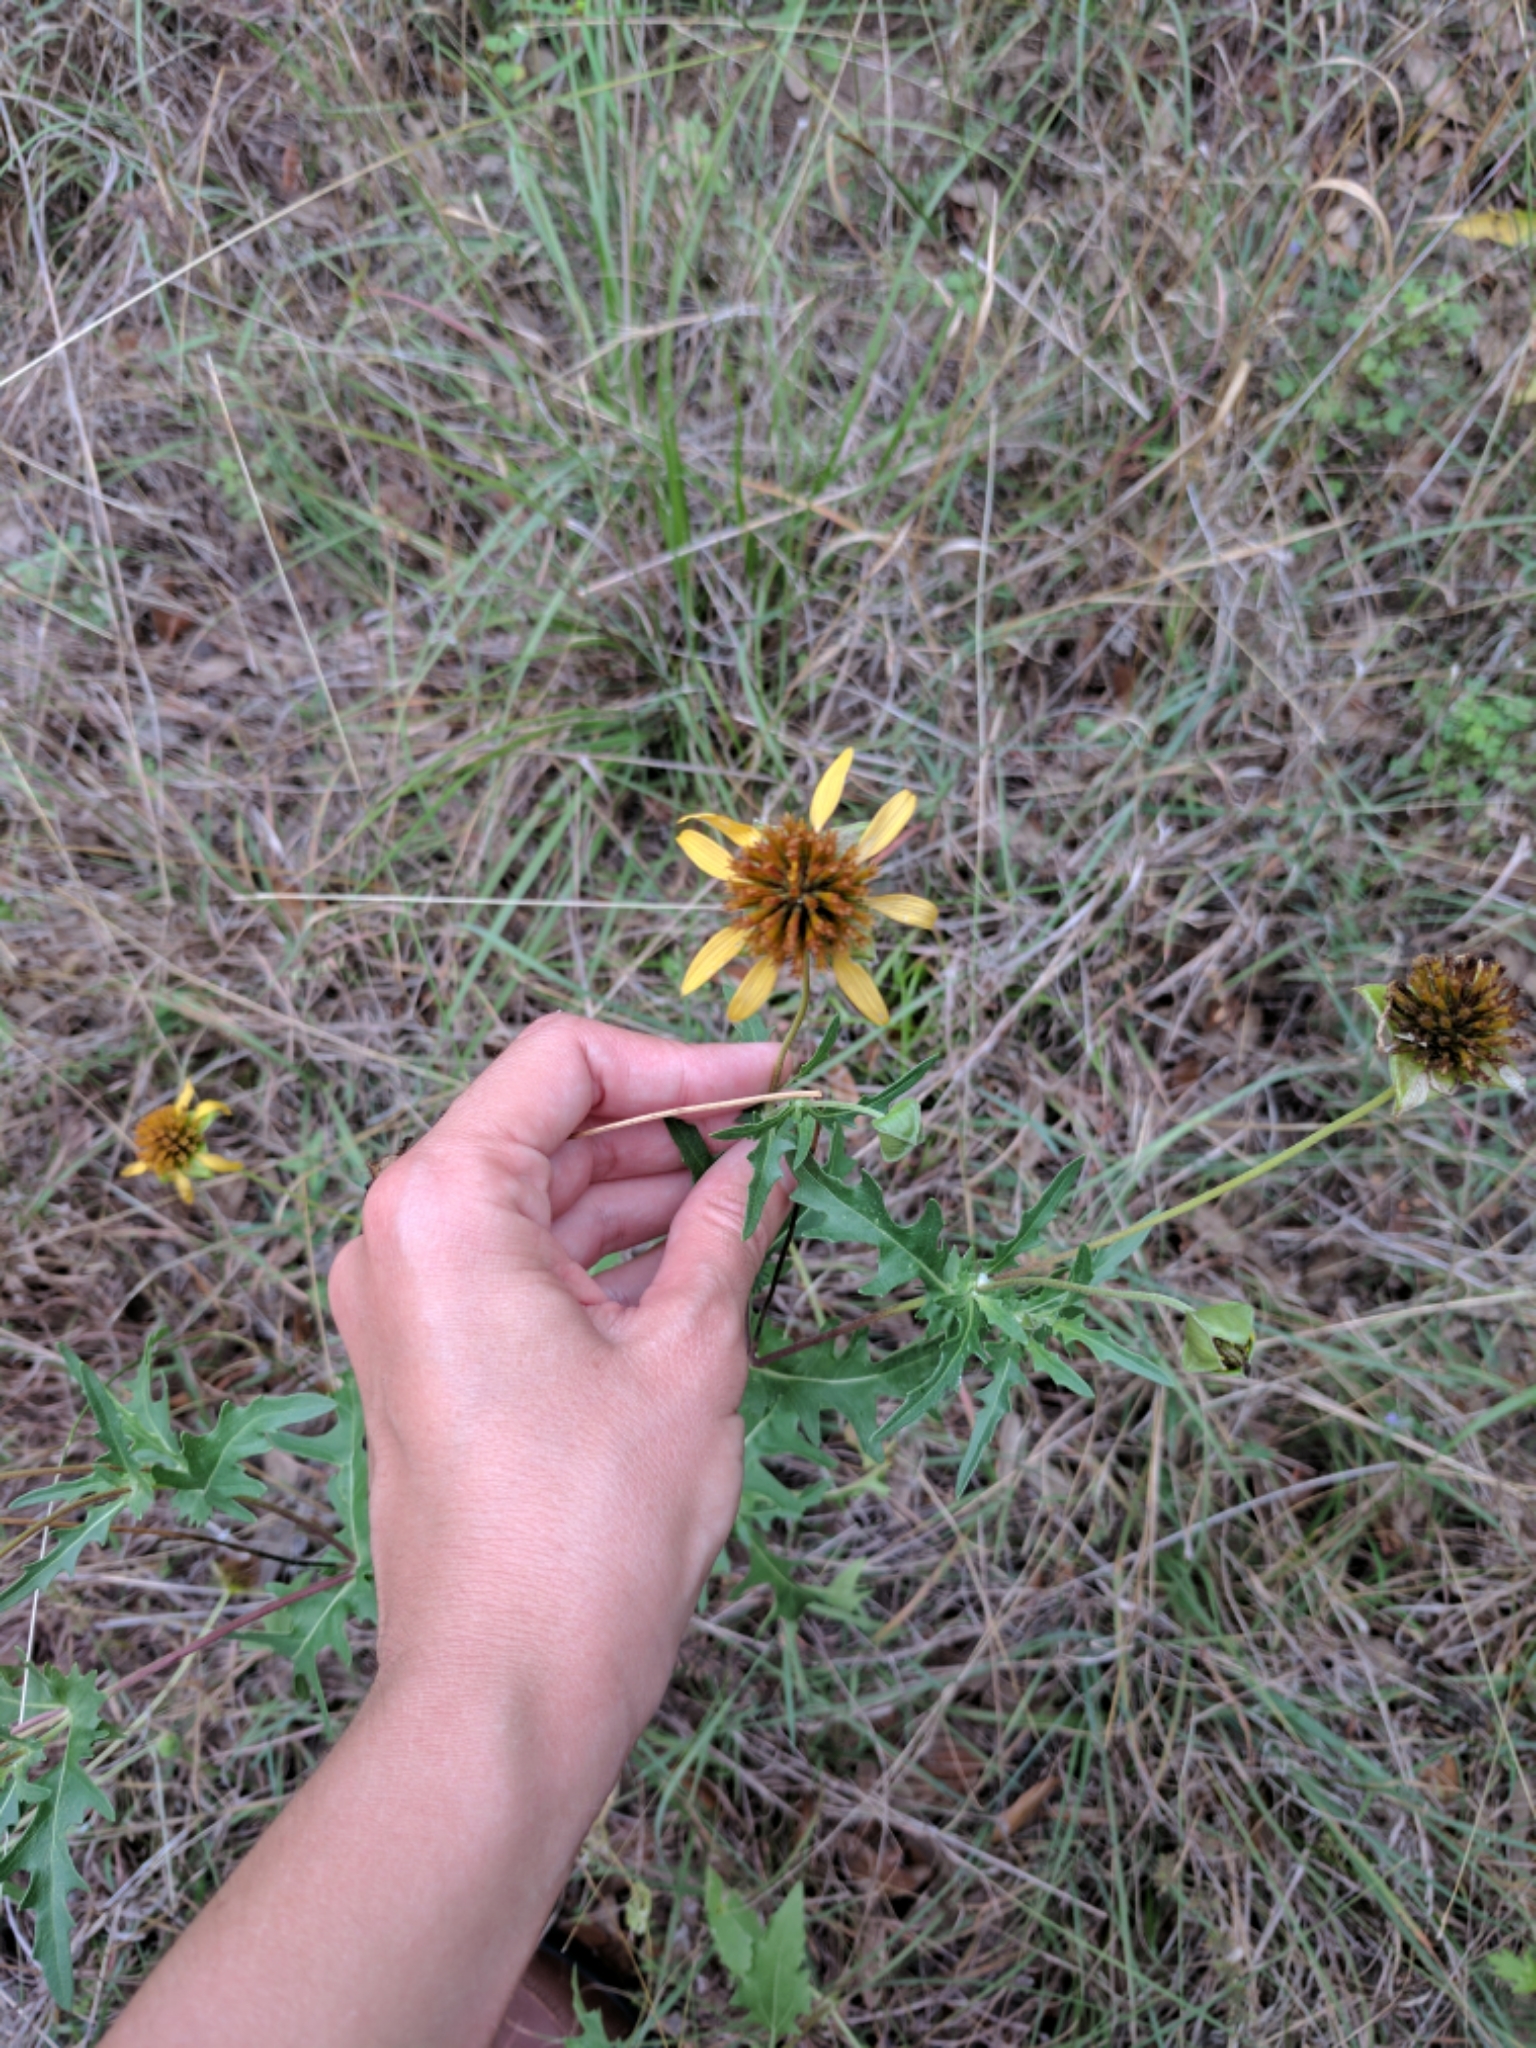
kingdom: Plantae
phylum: Tracheophyta
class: Magnoliopsida
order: Asterales
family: Asteraceae
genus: Tetragonotheca
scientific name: Tetragonotheca texana
